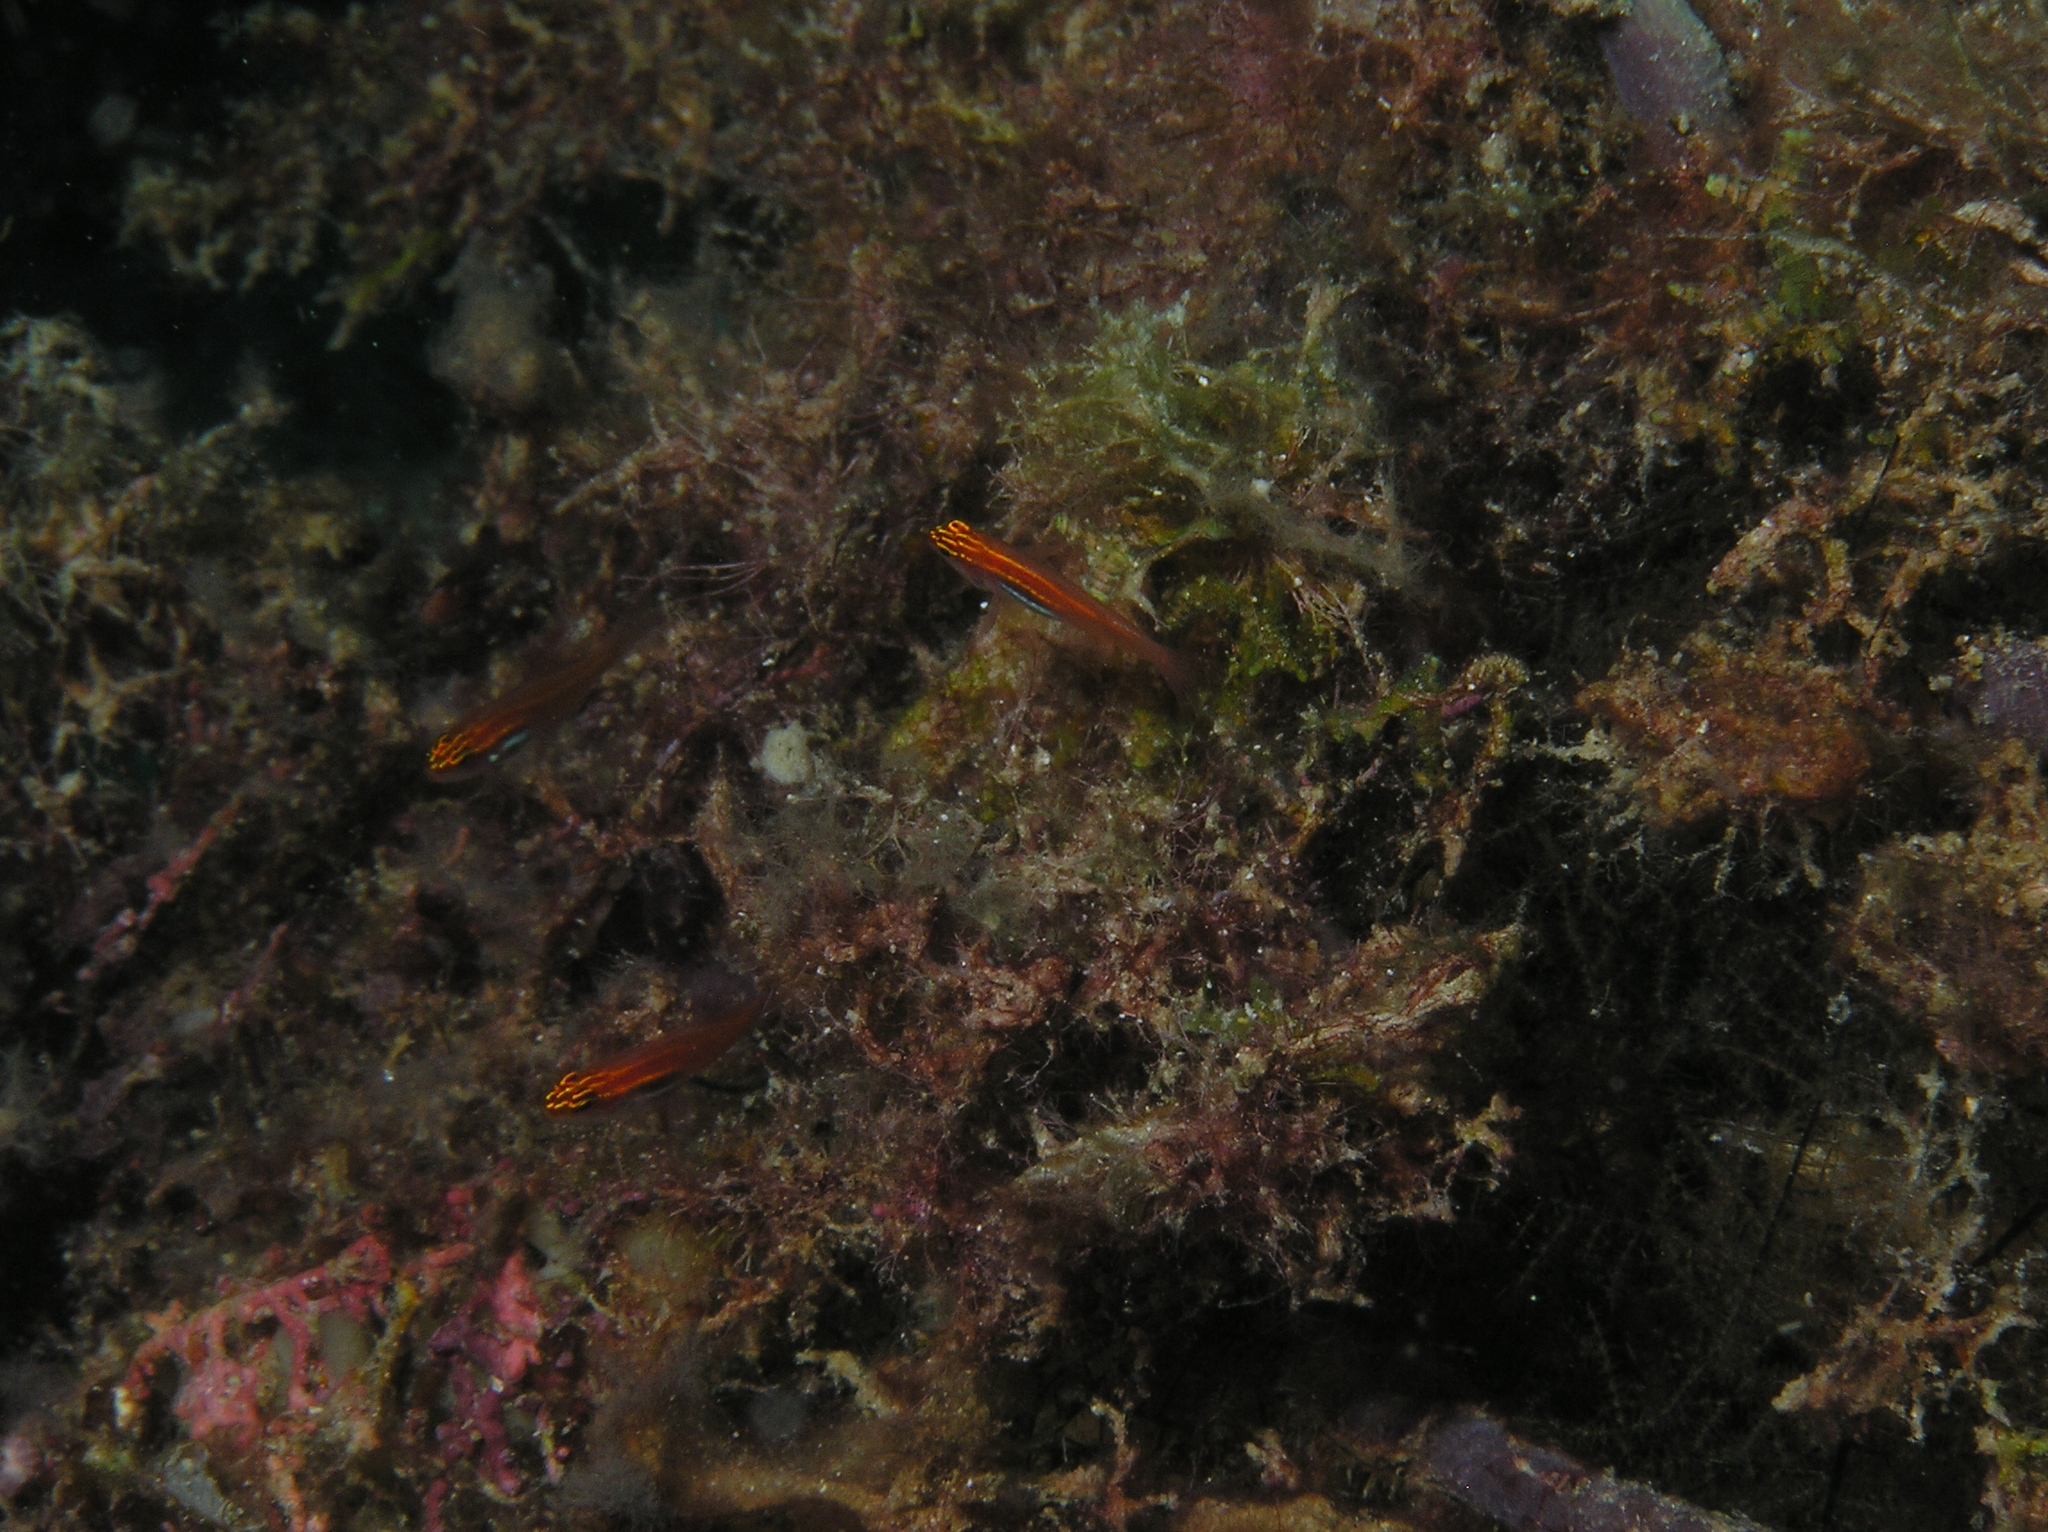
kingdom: Animalia
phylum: Chordata
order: Perciformes
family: Gobiidae
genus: Eviota
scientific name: Eviota atriventris
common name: Blackbelly dwarfgoby
